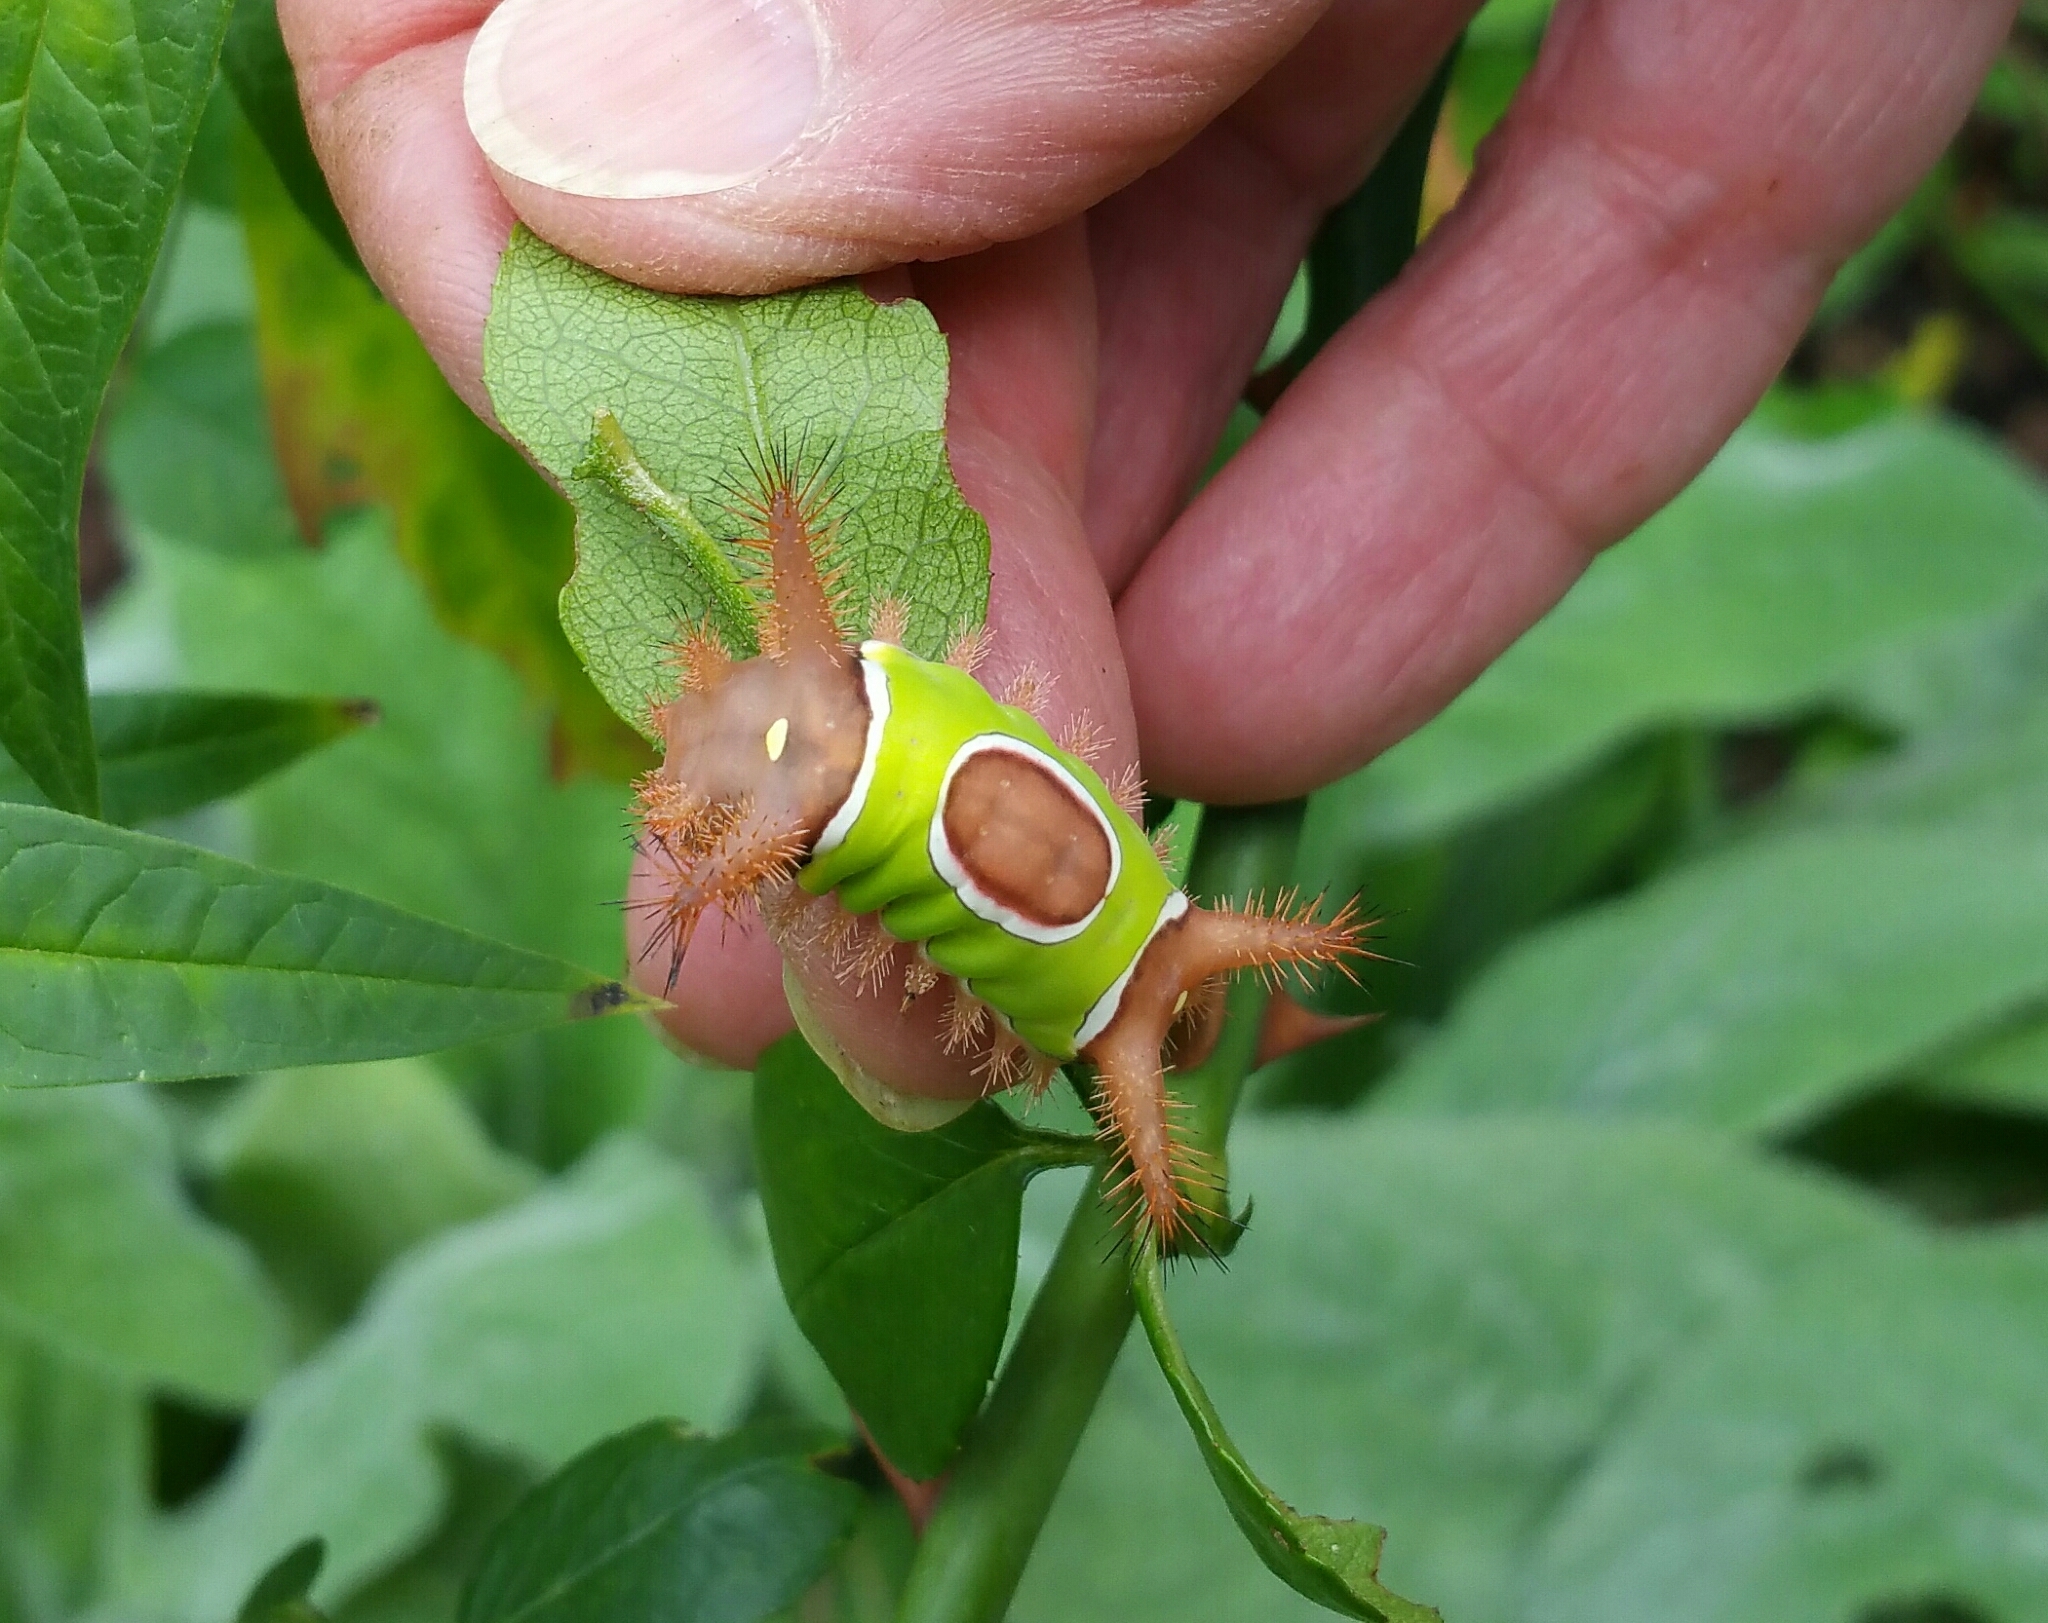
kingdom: Animalia
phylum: Arthropoda
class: Insecta
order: Lepidoptera
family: Limacodidae
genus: Acharia
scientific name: Acharia stimulea
